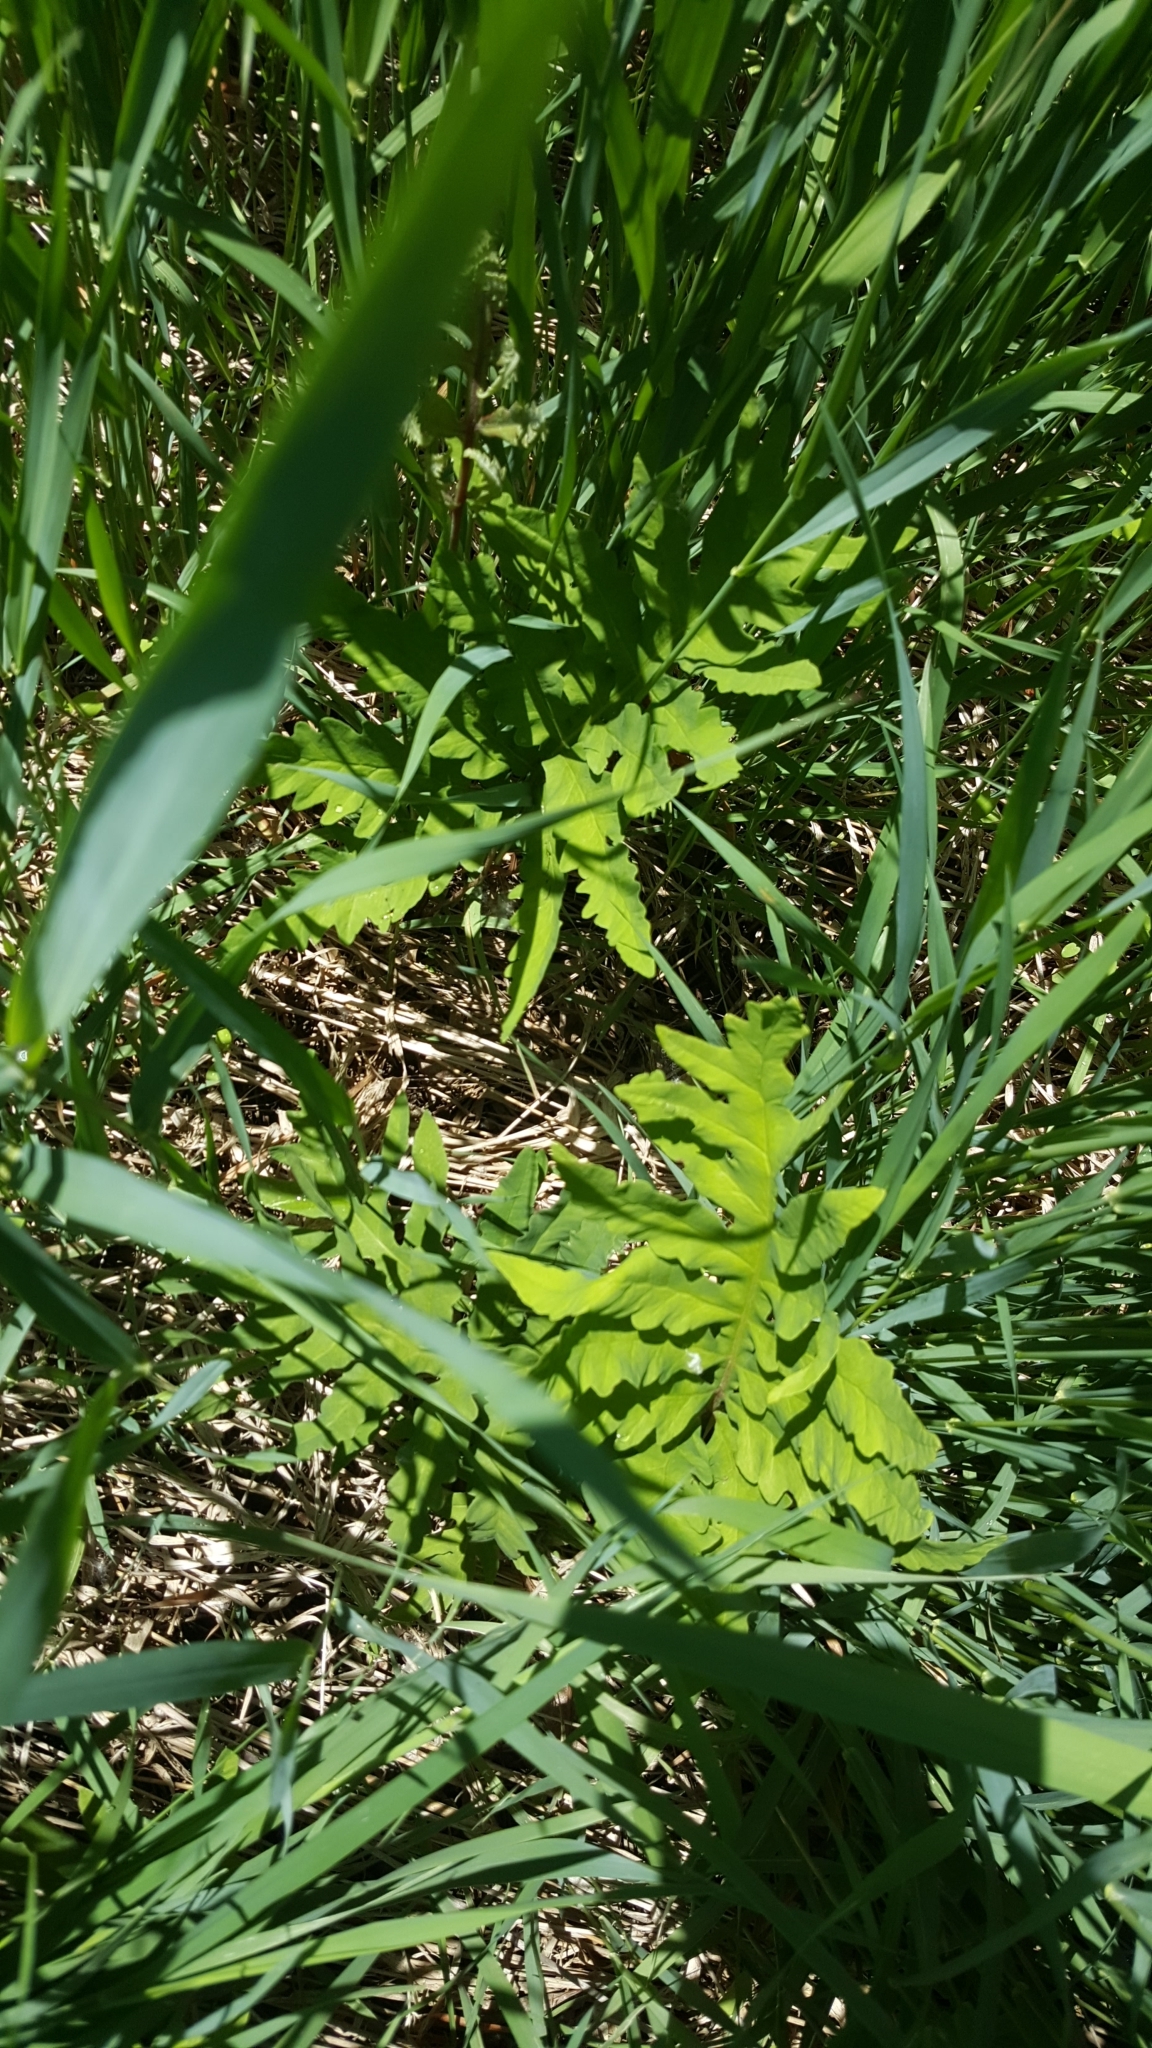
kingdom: Plantae
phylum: Tracheophyta
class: Polypodiopsida
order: Polypodiales
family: Onocleaceae
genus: Onoclea
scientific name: Onoclea sensibilis
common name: Sensitive fern
